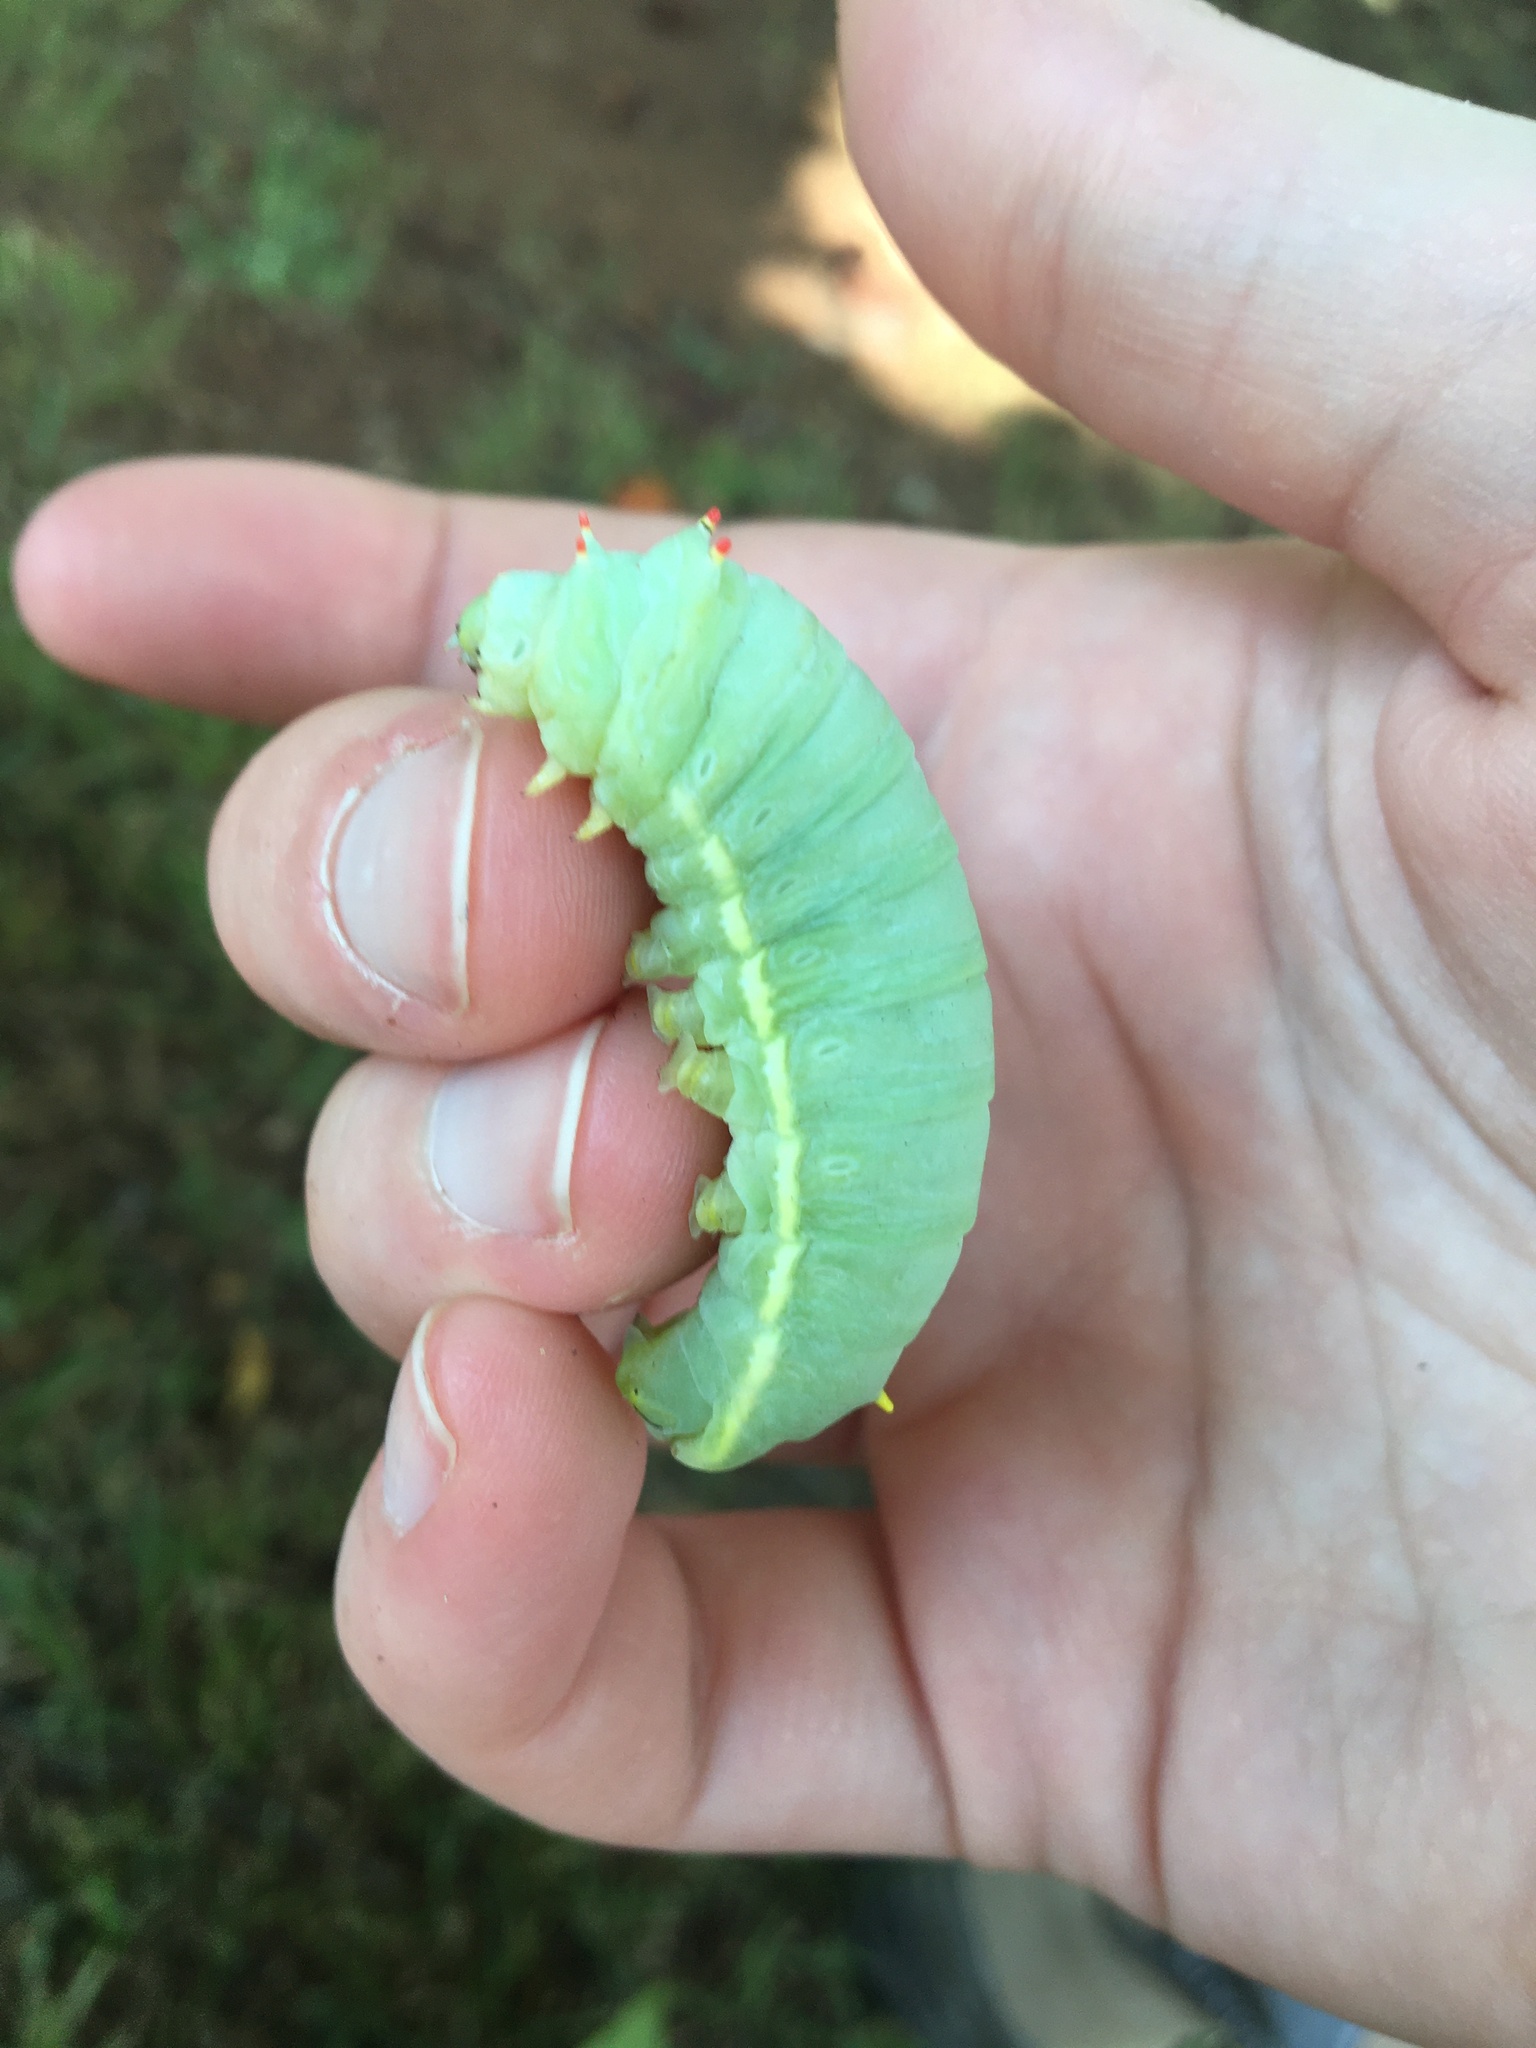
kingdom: Animalia
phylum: Arthropoda
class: Insecta
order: Lepidoptera
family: Saturniidae
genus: Callosamia
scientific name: Callosamia angulifera
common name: Tulip tree silkmoth
